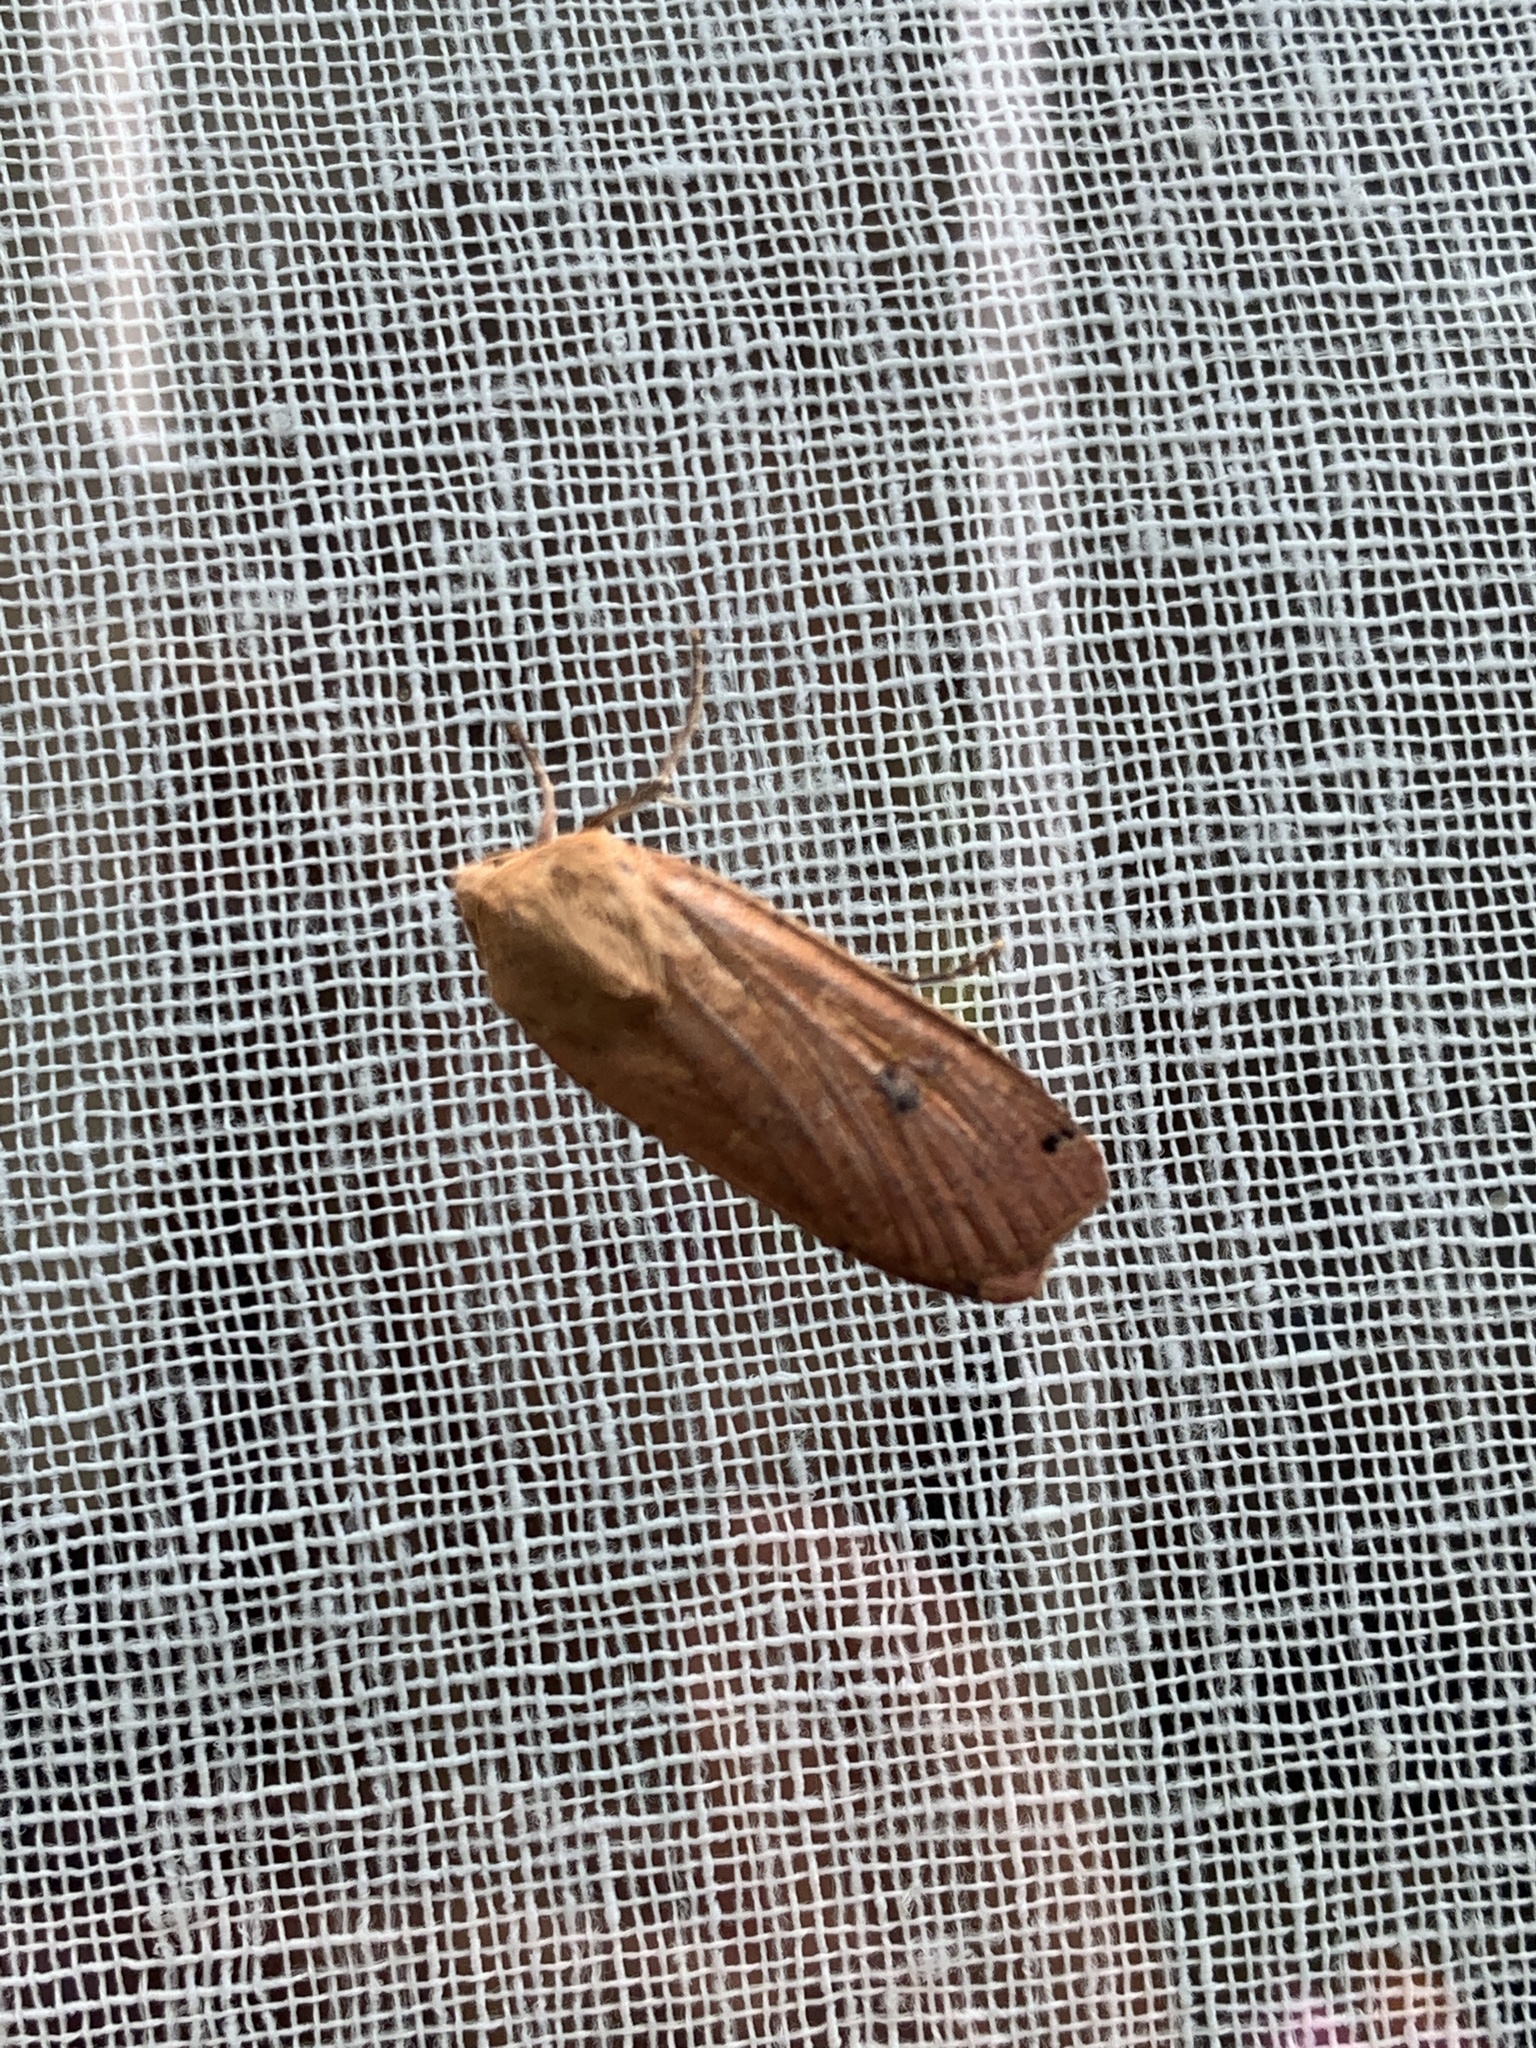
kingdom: Animalia
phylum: Arthropoda
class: Insecta
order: Lepidoptera
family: Noctuidae
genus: Noctua
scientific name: Noctua pronuba
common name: Large yellow underwing
